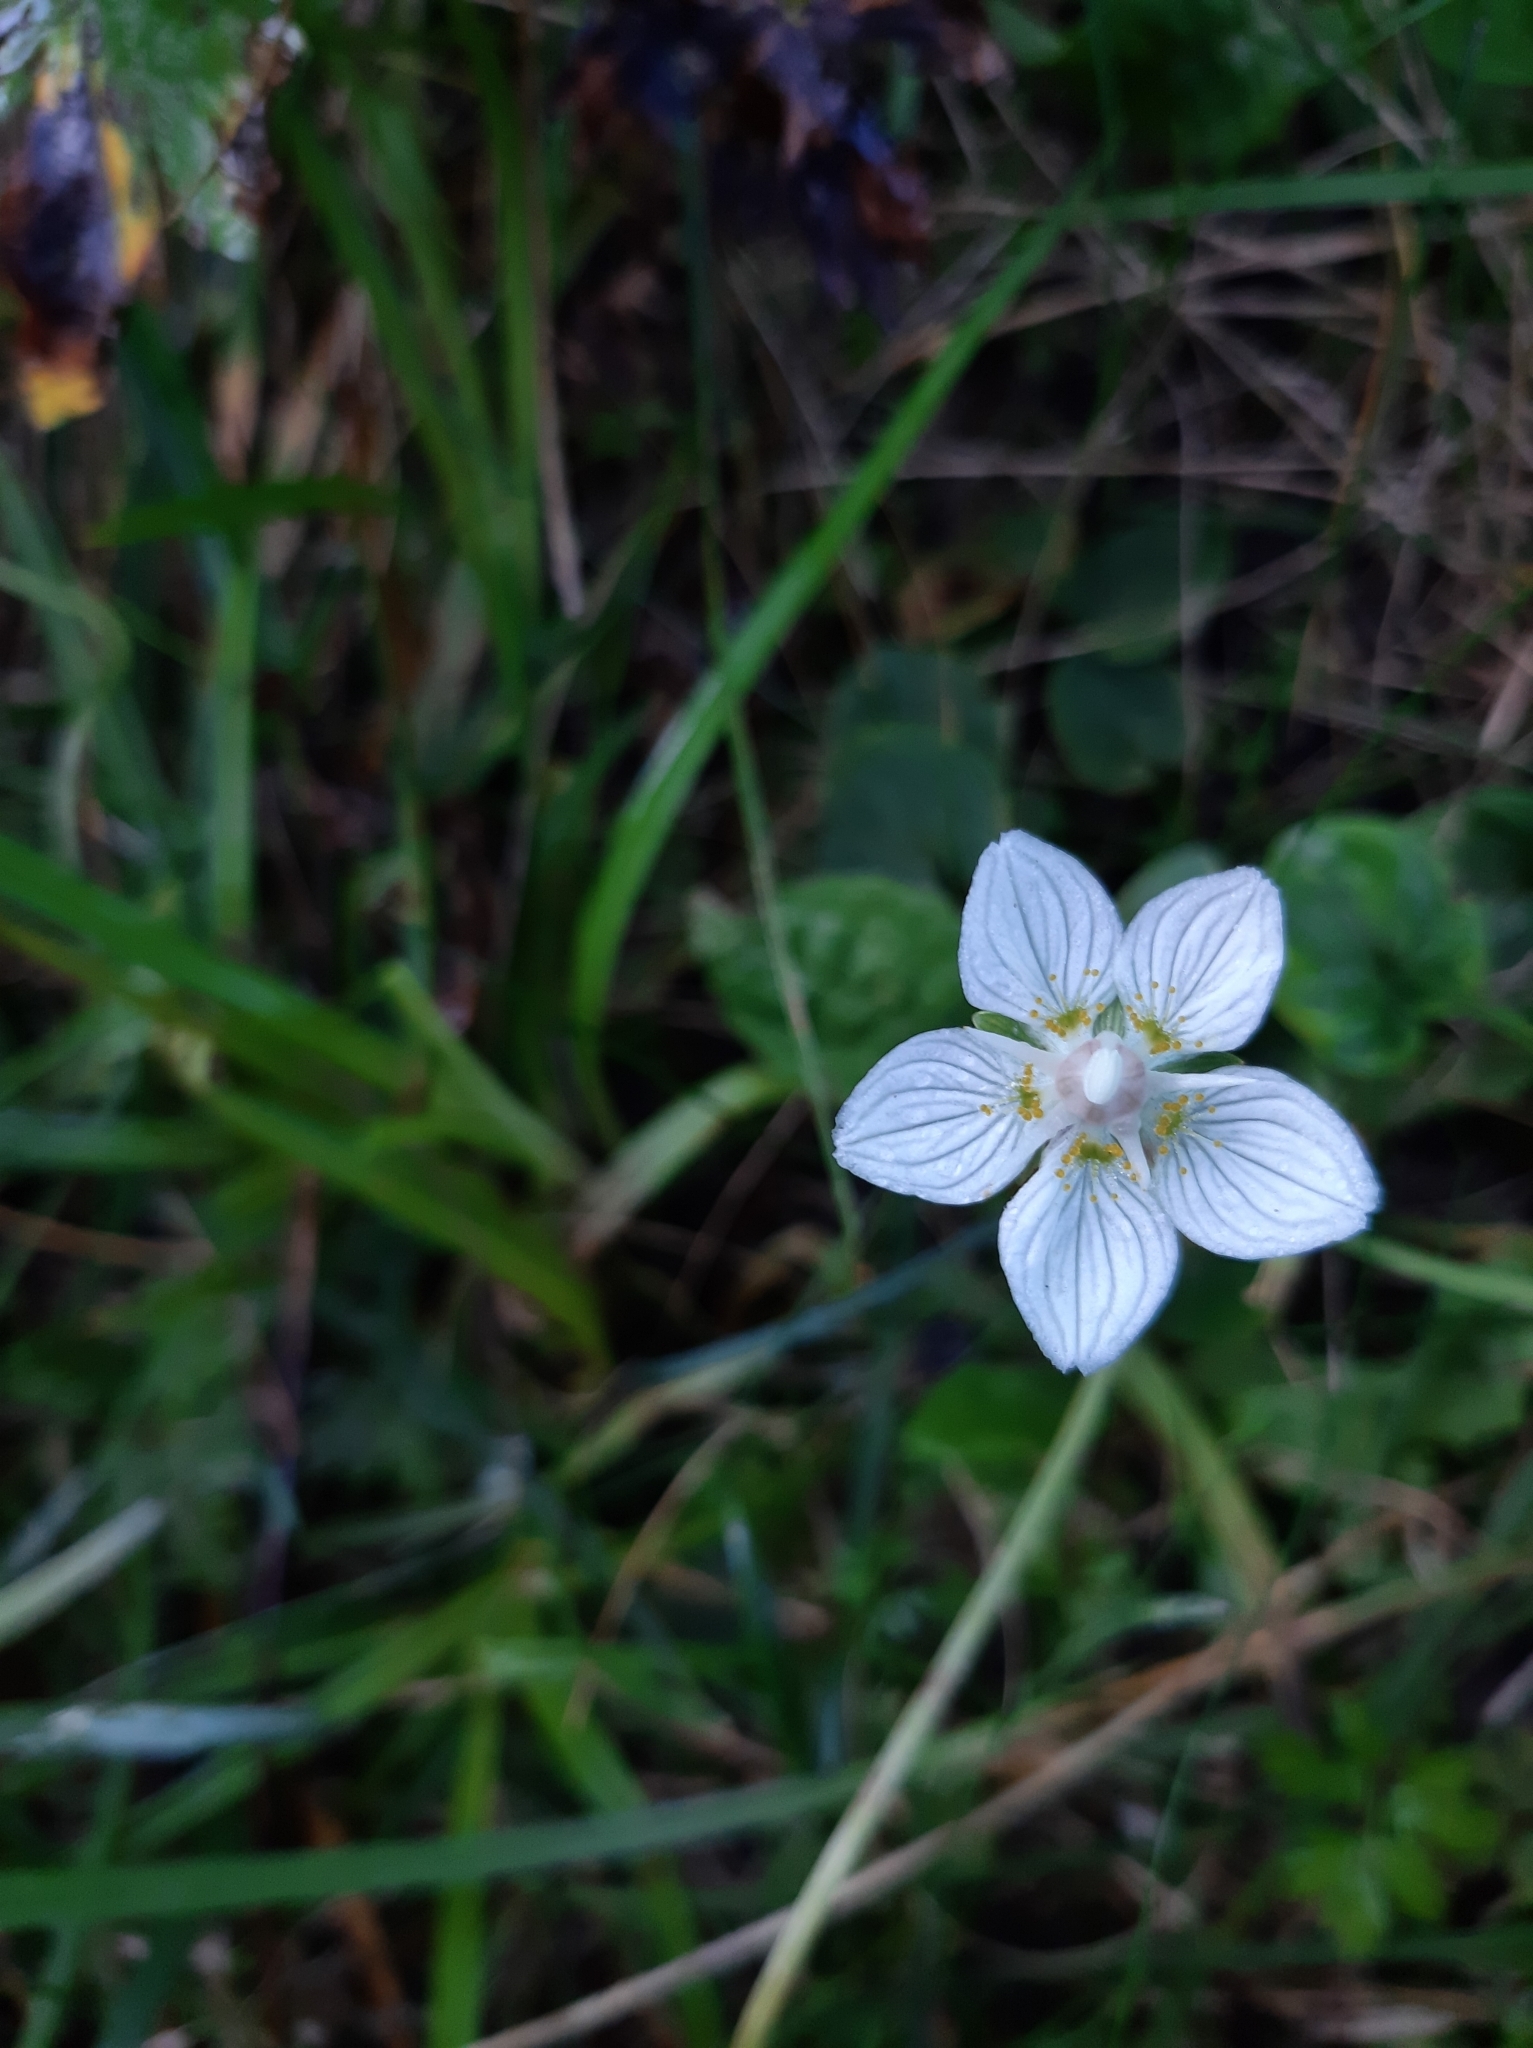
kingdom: Plantae
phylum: Tracheophyta
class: Magnoliopsida
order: Celastrales
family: Parnassiaceae
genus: Parnassia
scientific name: Parnassia palustris
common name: Grass-of-parnassus
